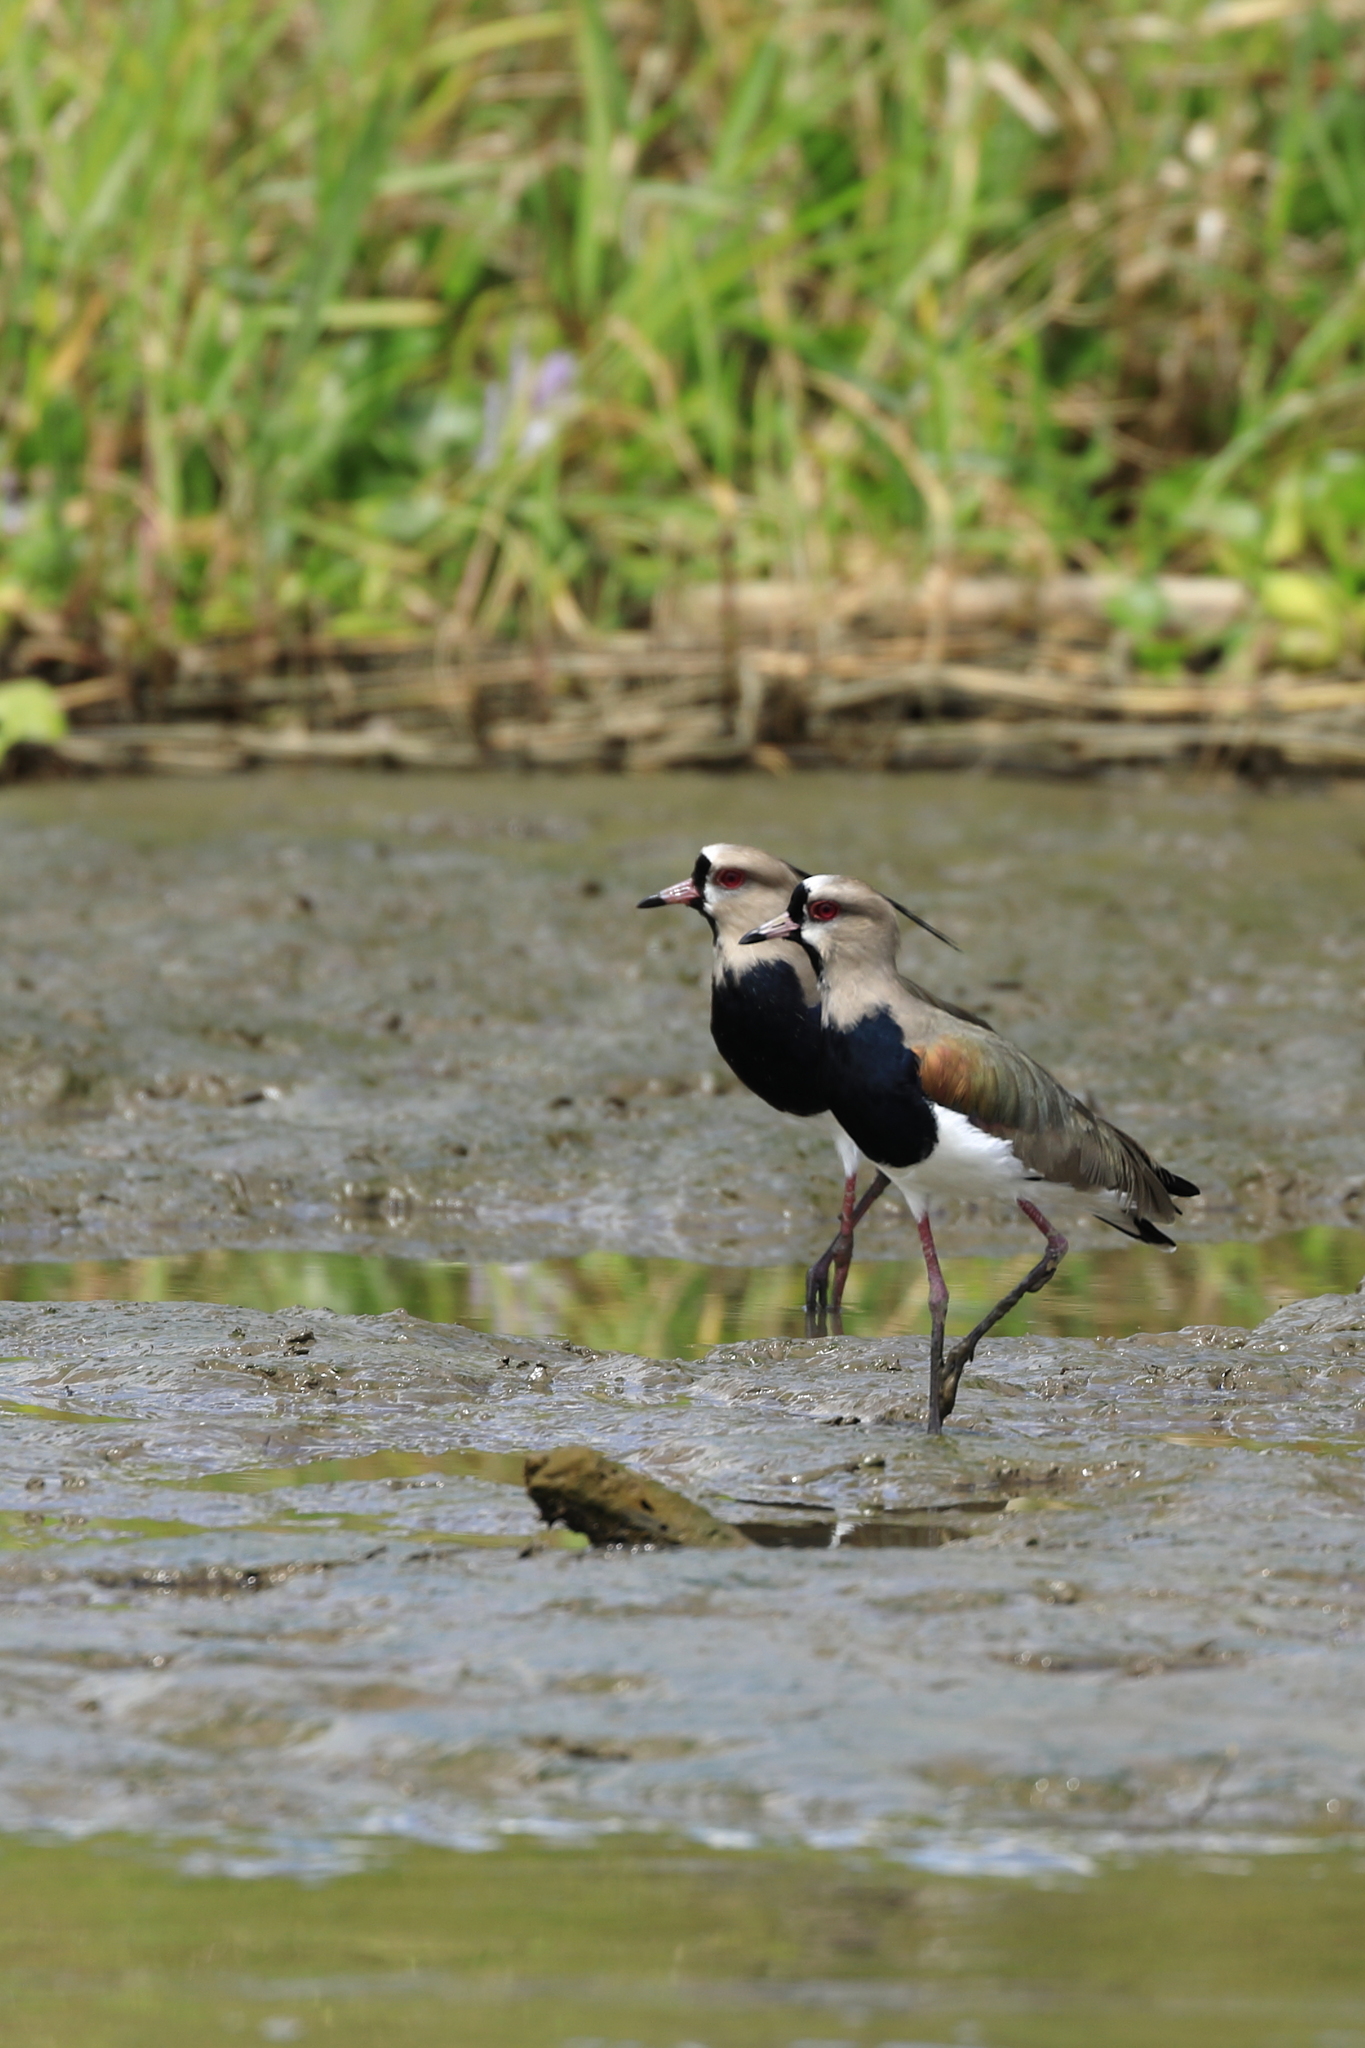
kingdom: Animalia
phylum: Chordata
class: Aves
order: Charadriiformes
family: Charadriidae
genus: Vanellus
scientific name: Vanellus chilensis
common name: Southern lapwing
